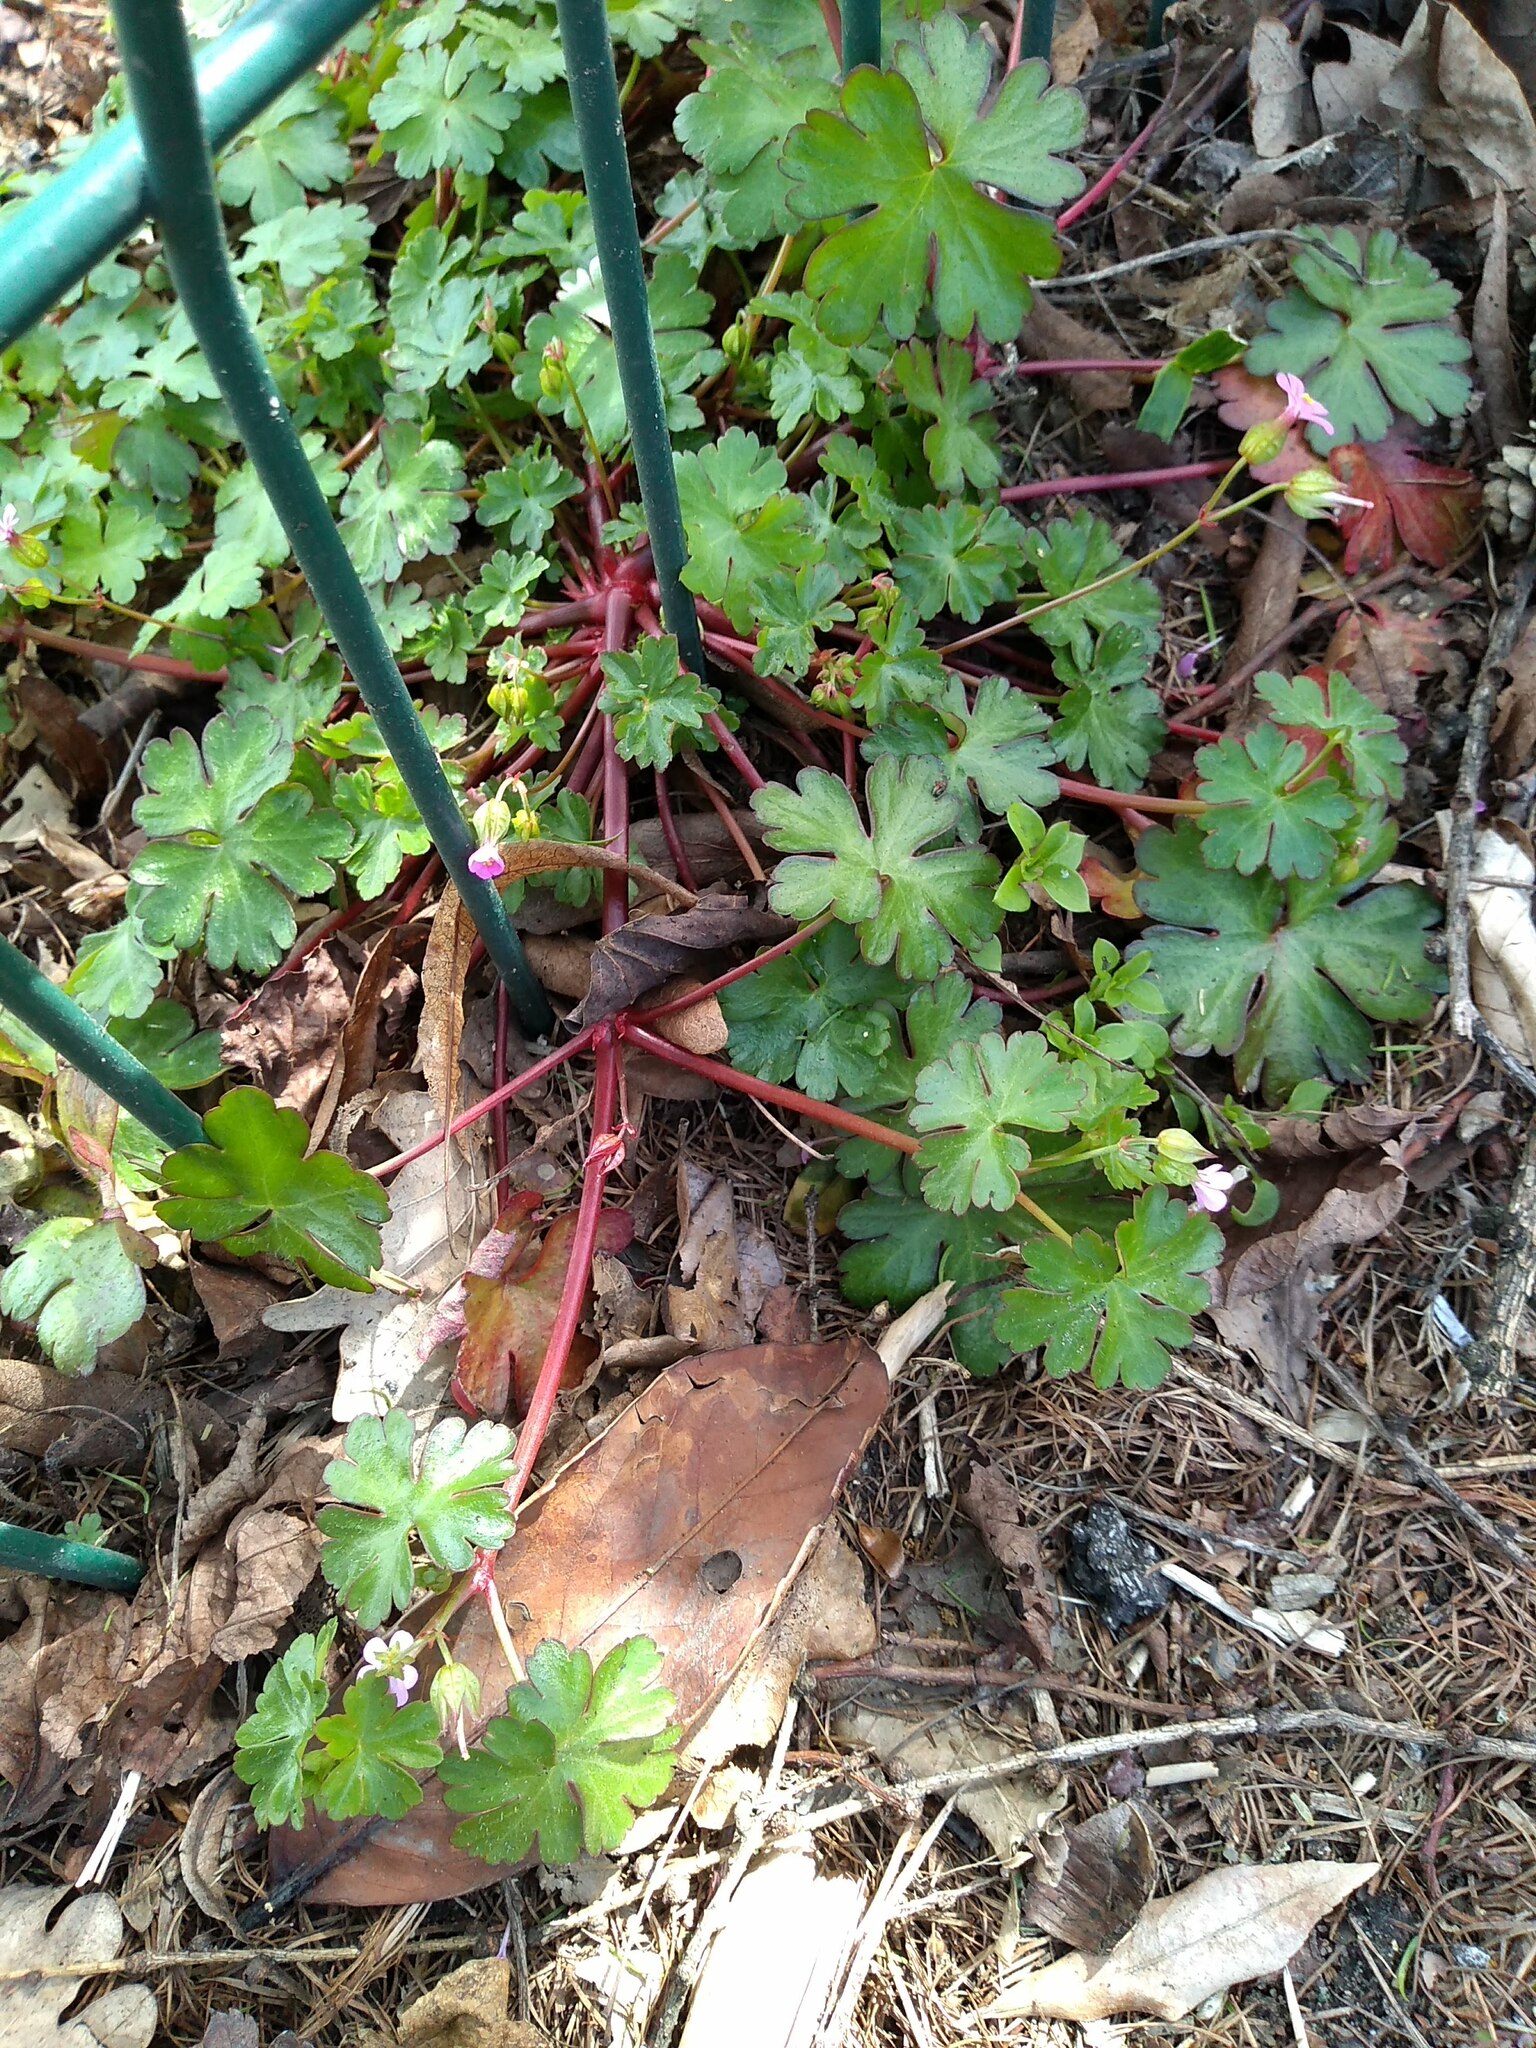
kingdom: Plantae
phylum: Tracheophyta
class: Magnoliopsida
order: Geraniales
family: Geraniaceae
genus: Geranium
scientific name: Geranium lucidum
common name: Shining crane's-bill
